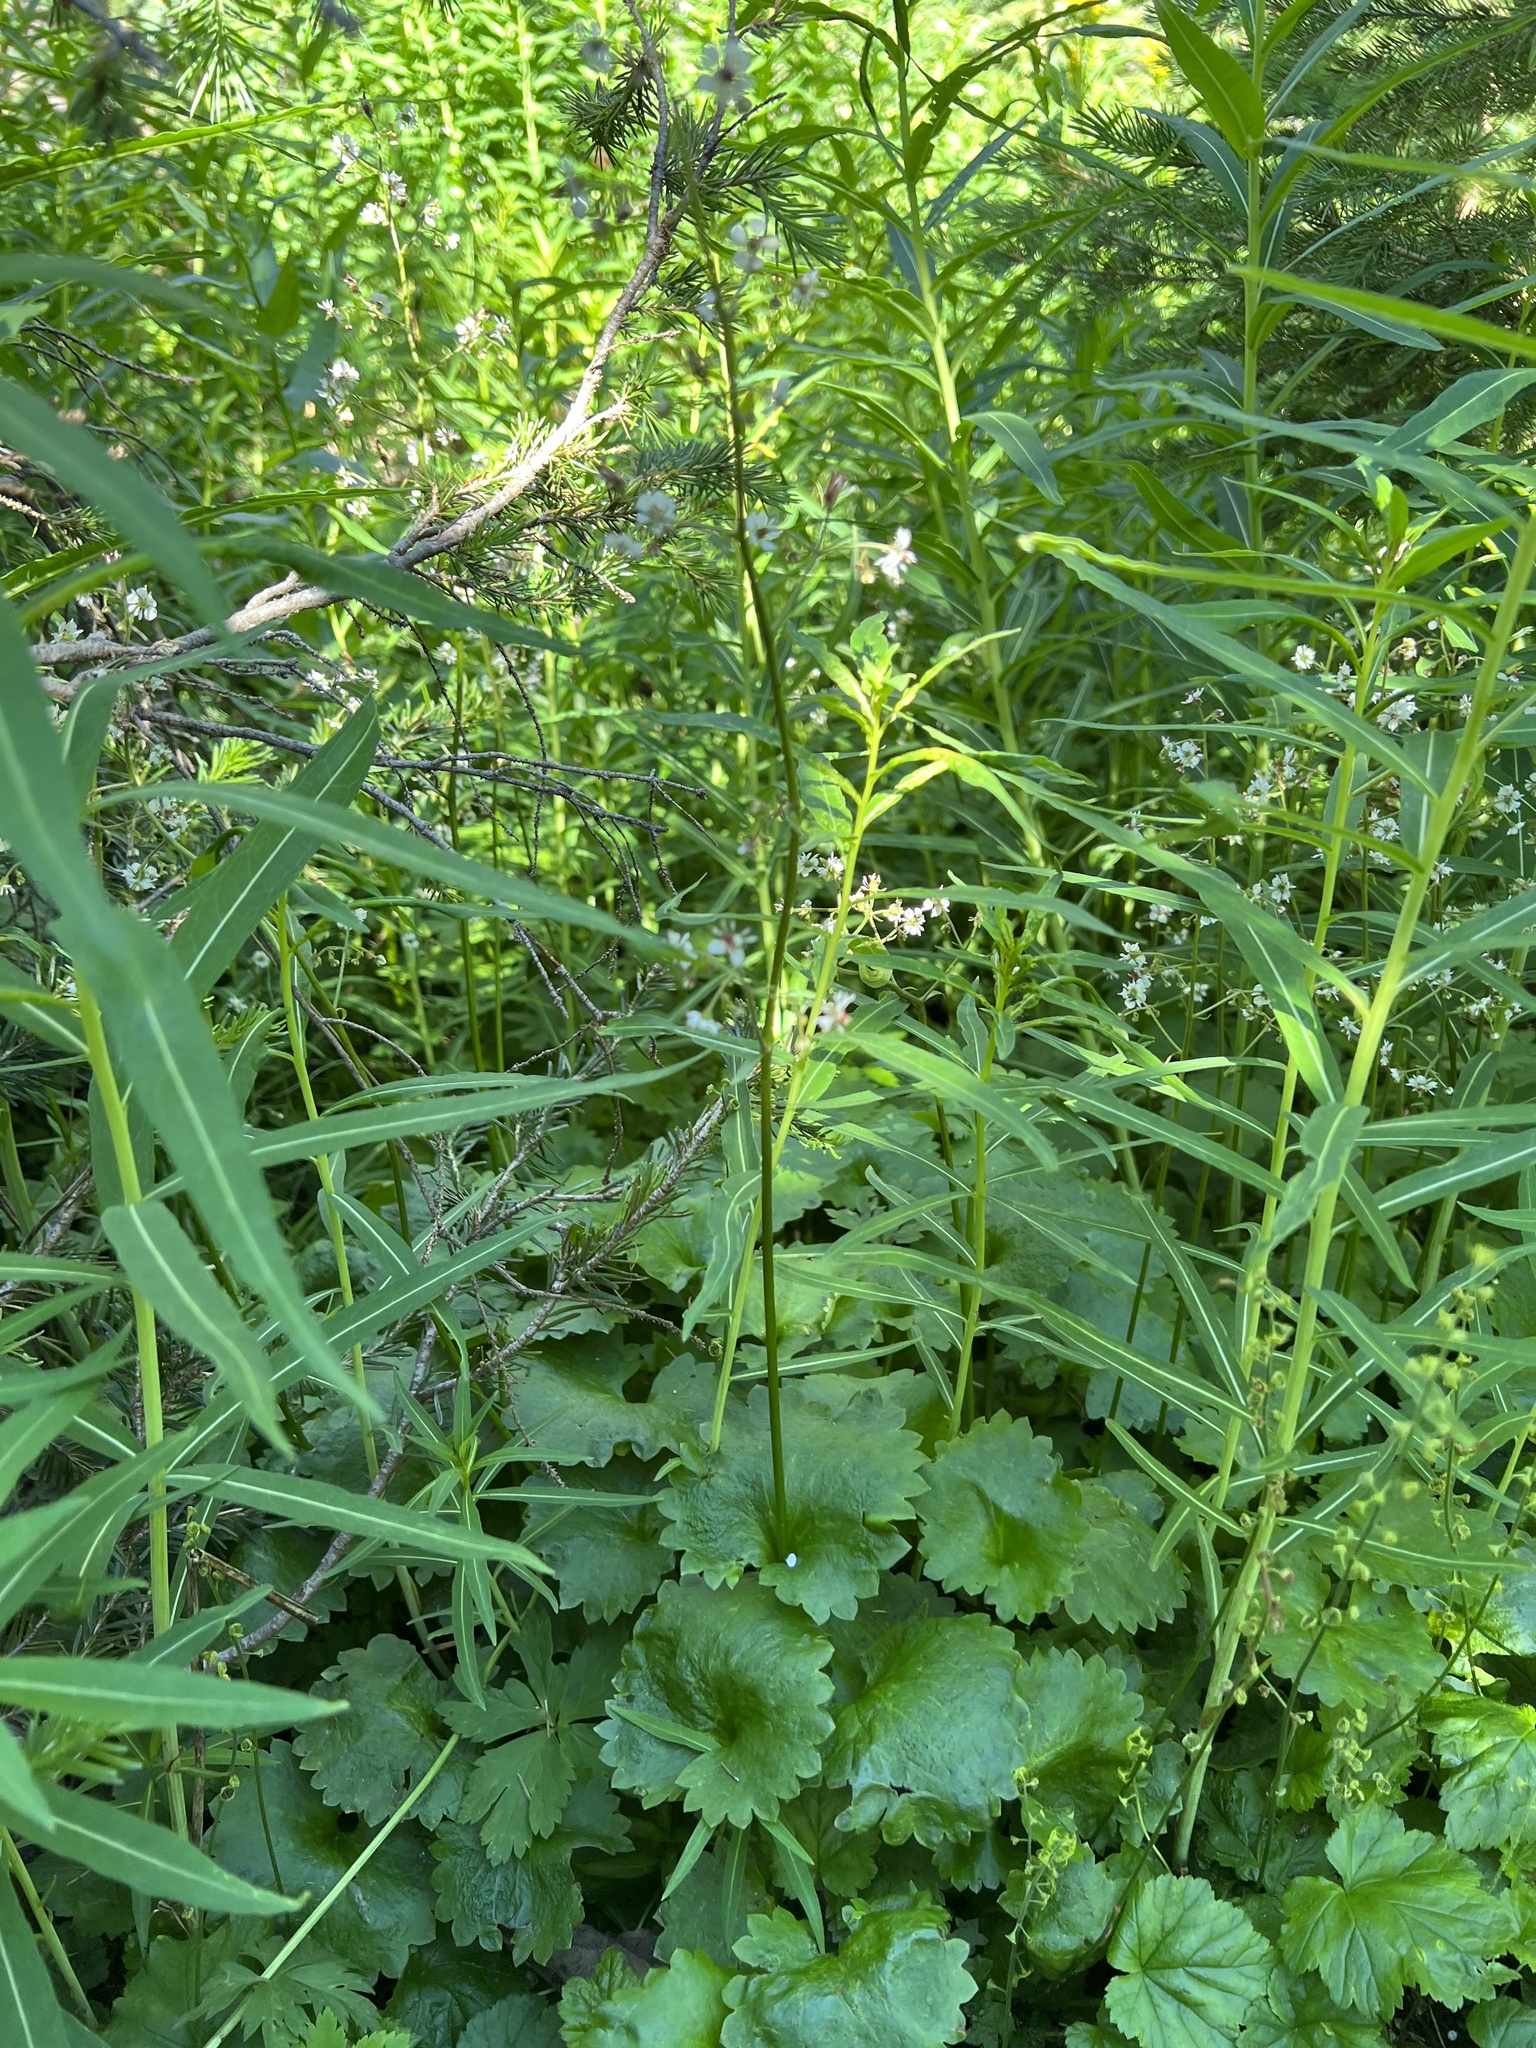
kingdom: Plantae
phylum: Tracheophyta
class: Magnoliopsida
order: Saxifragales
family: Saxifragaceae
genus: Micranthes
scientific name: Micranthes odontoloma
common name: Brook saxifrage
